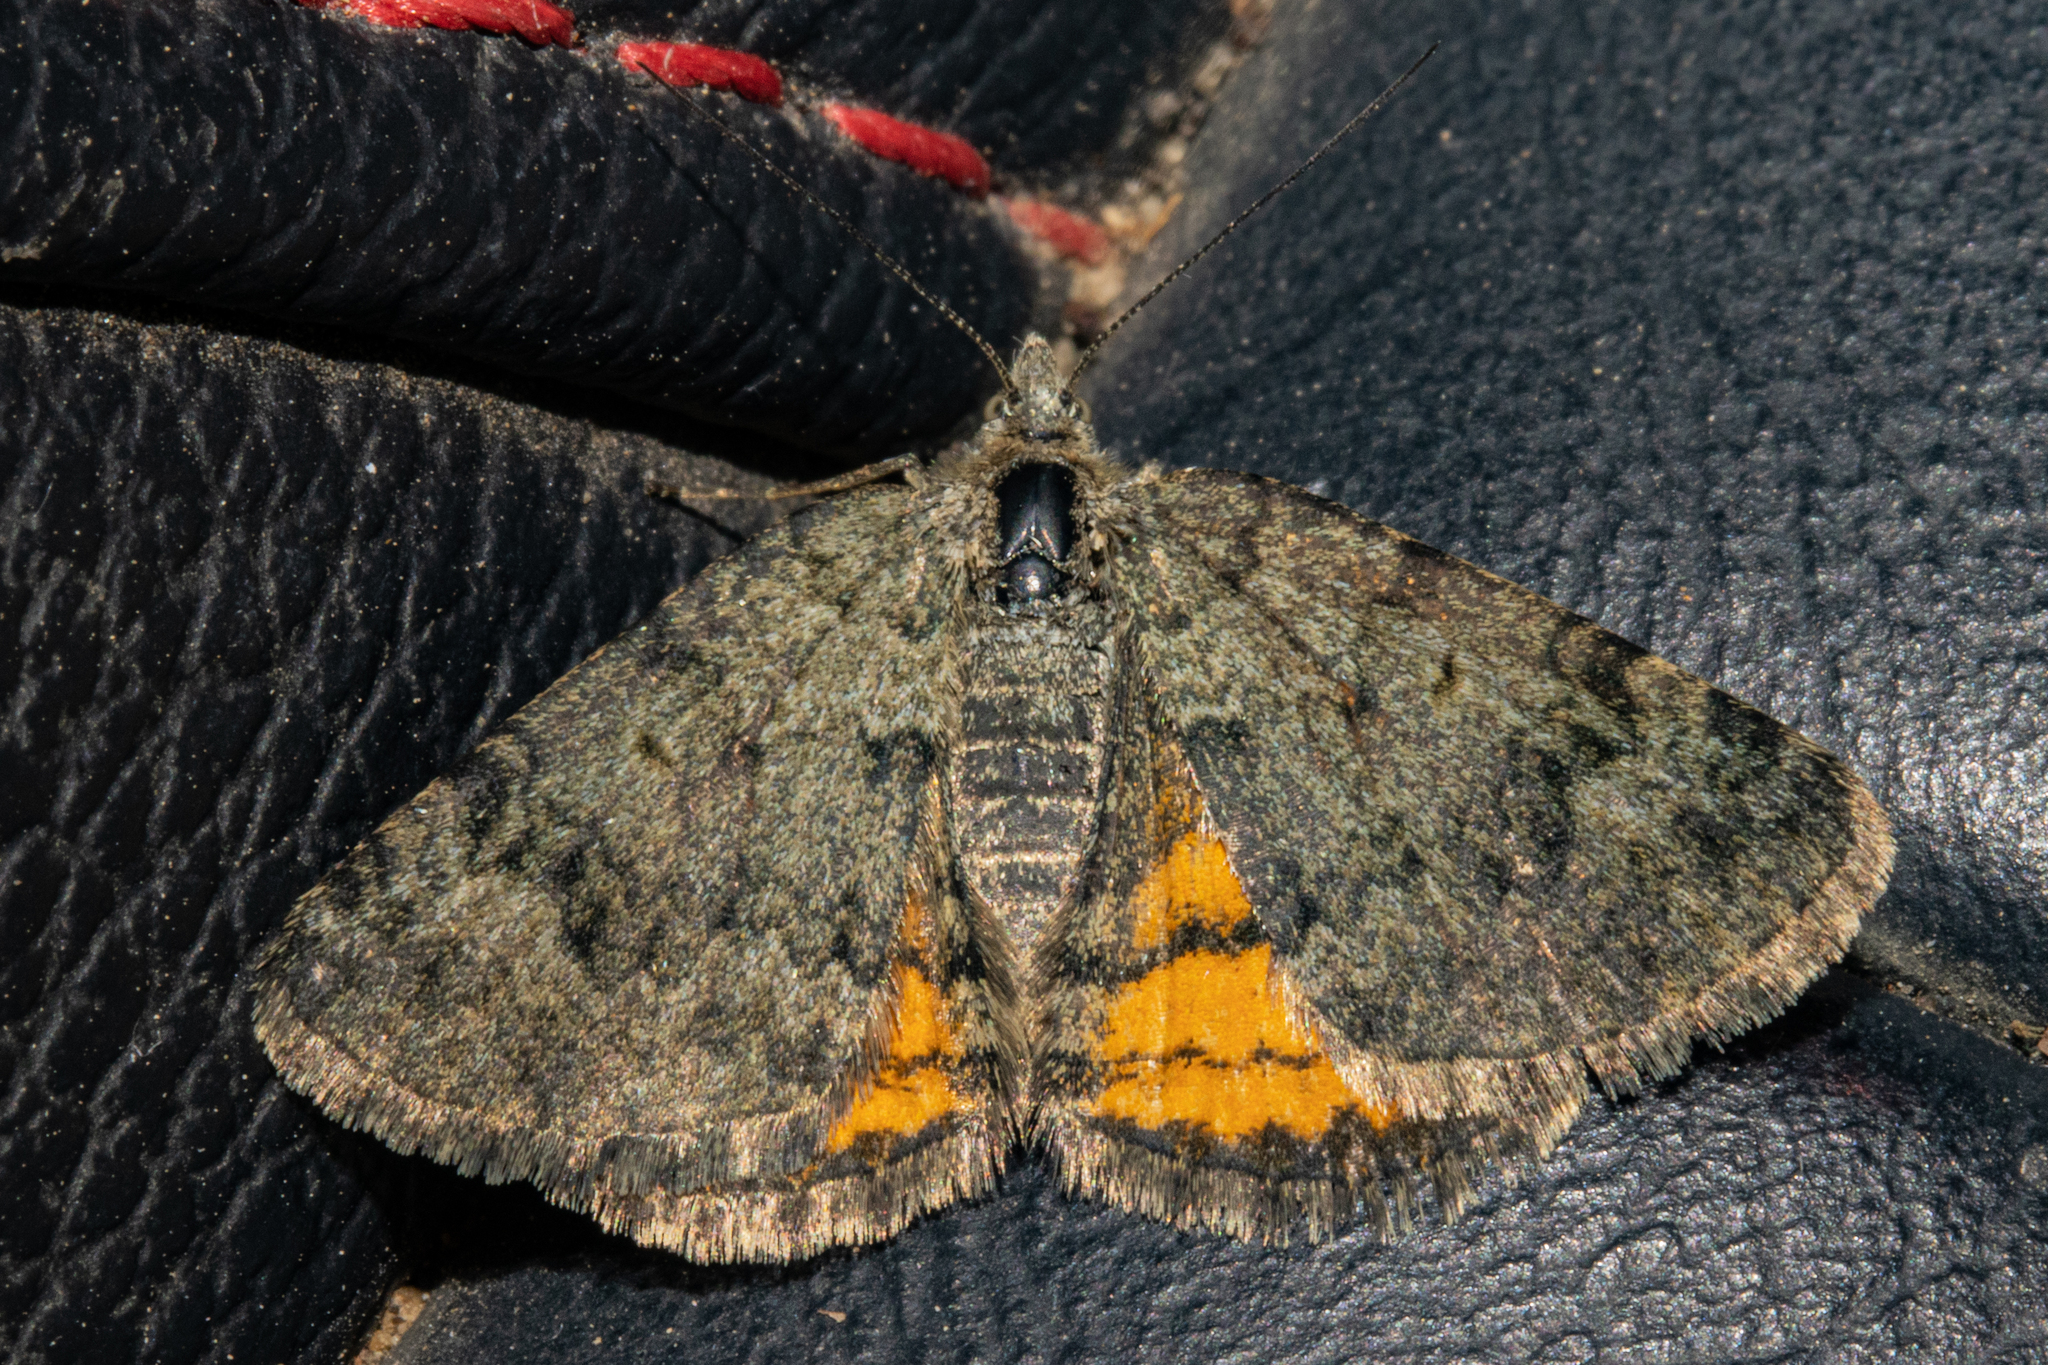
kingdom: Animalia
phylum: Arthropoda
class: Insecta
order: Lepidoptera
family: Geometridae
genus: Paranotoreas
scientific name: Paranotoreas brephosata
